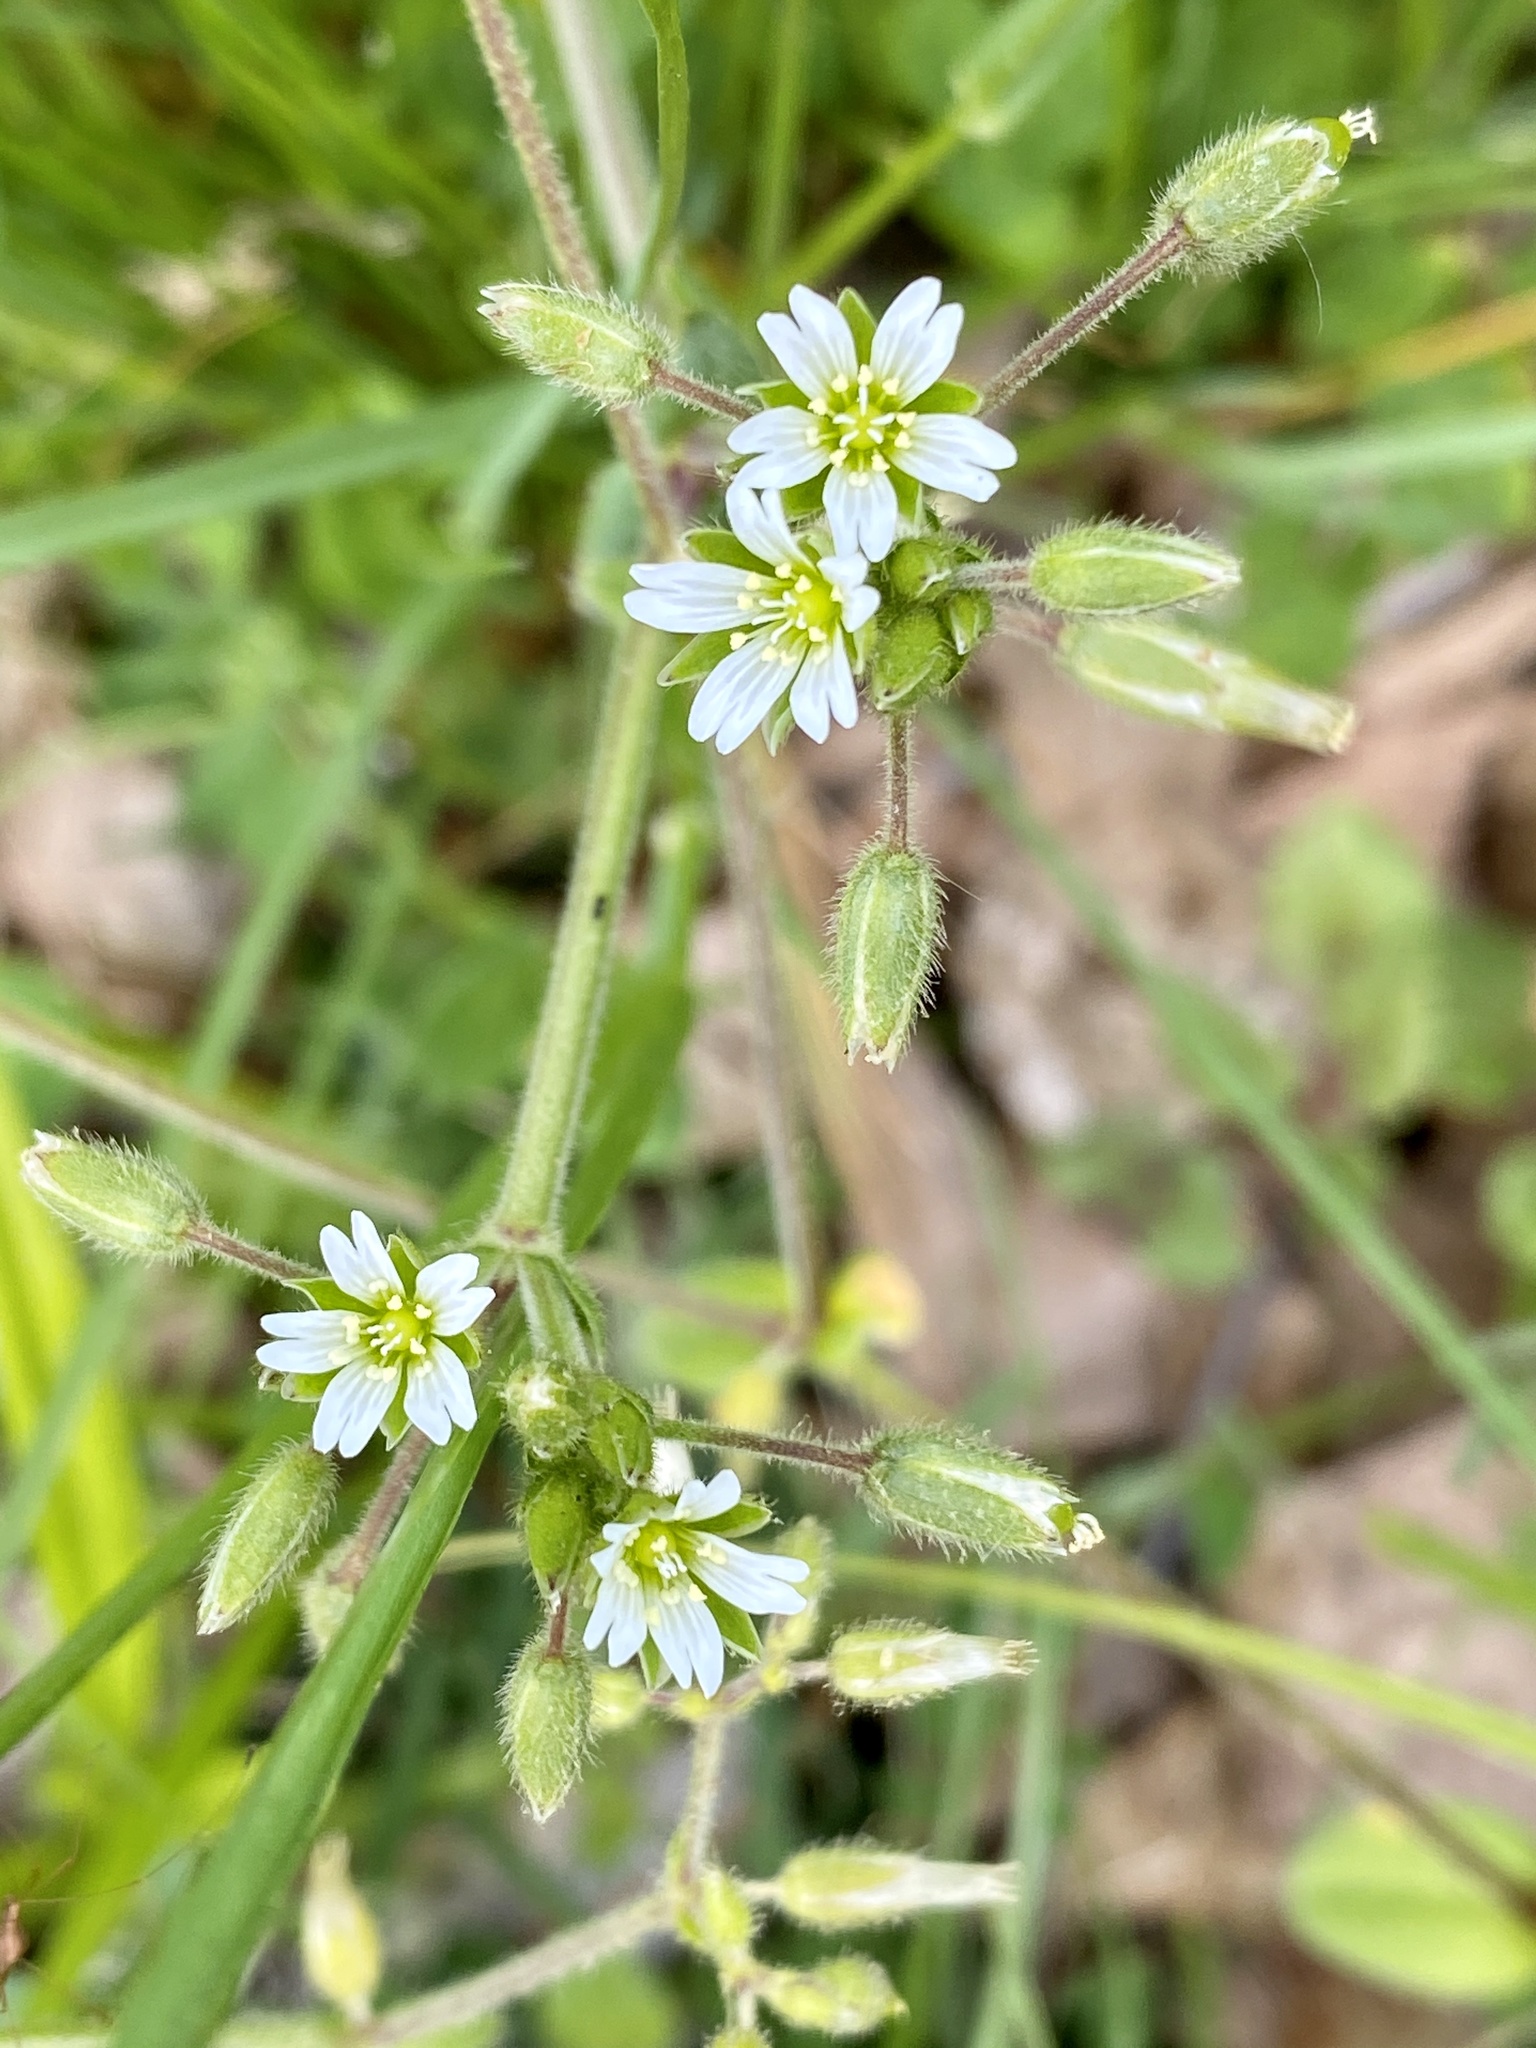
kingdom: Plantae
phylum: Tracheophyta
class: Magnoliopsida
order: Caryophyllales
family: Caryophyllaceae
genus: Cerastium
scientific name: Cerastium fontanum
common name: Common mouse-ear
